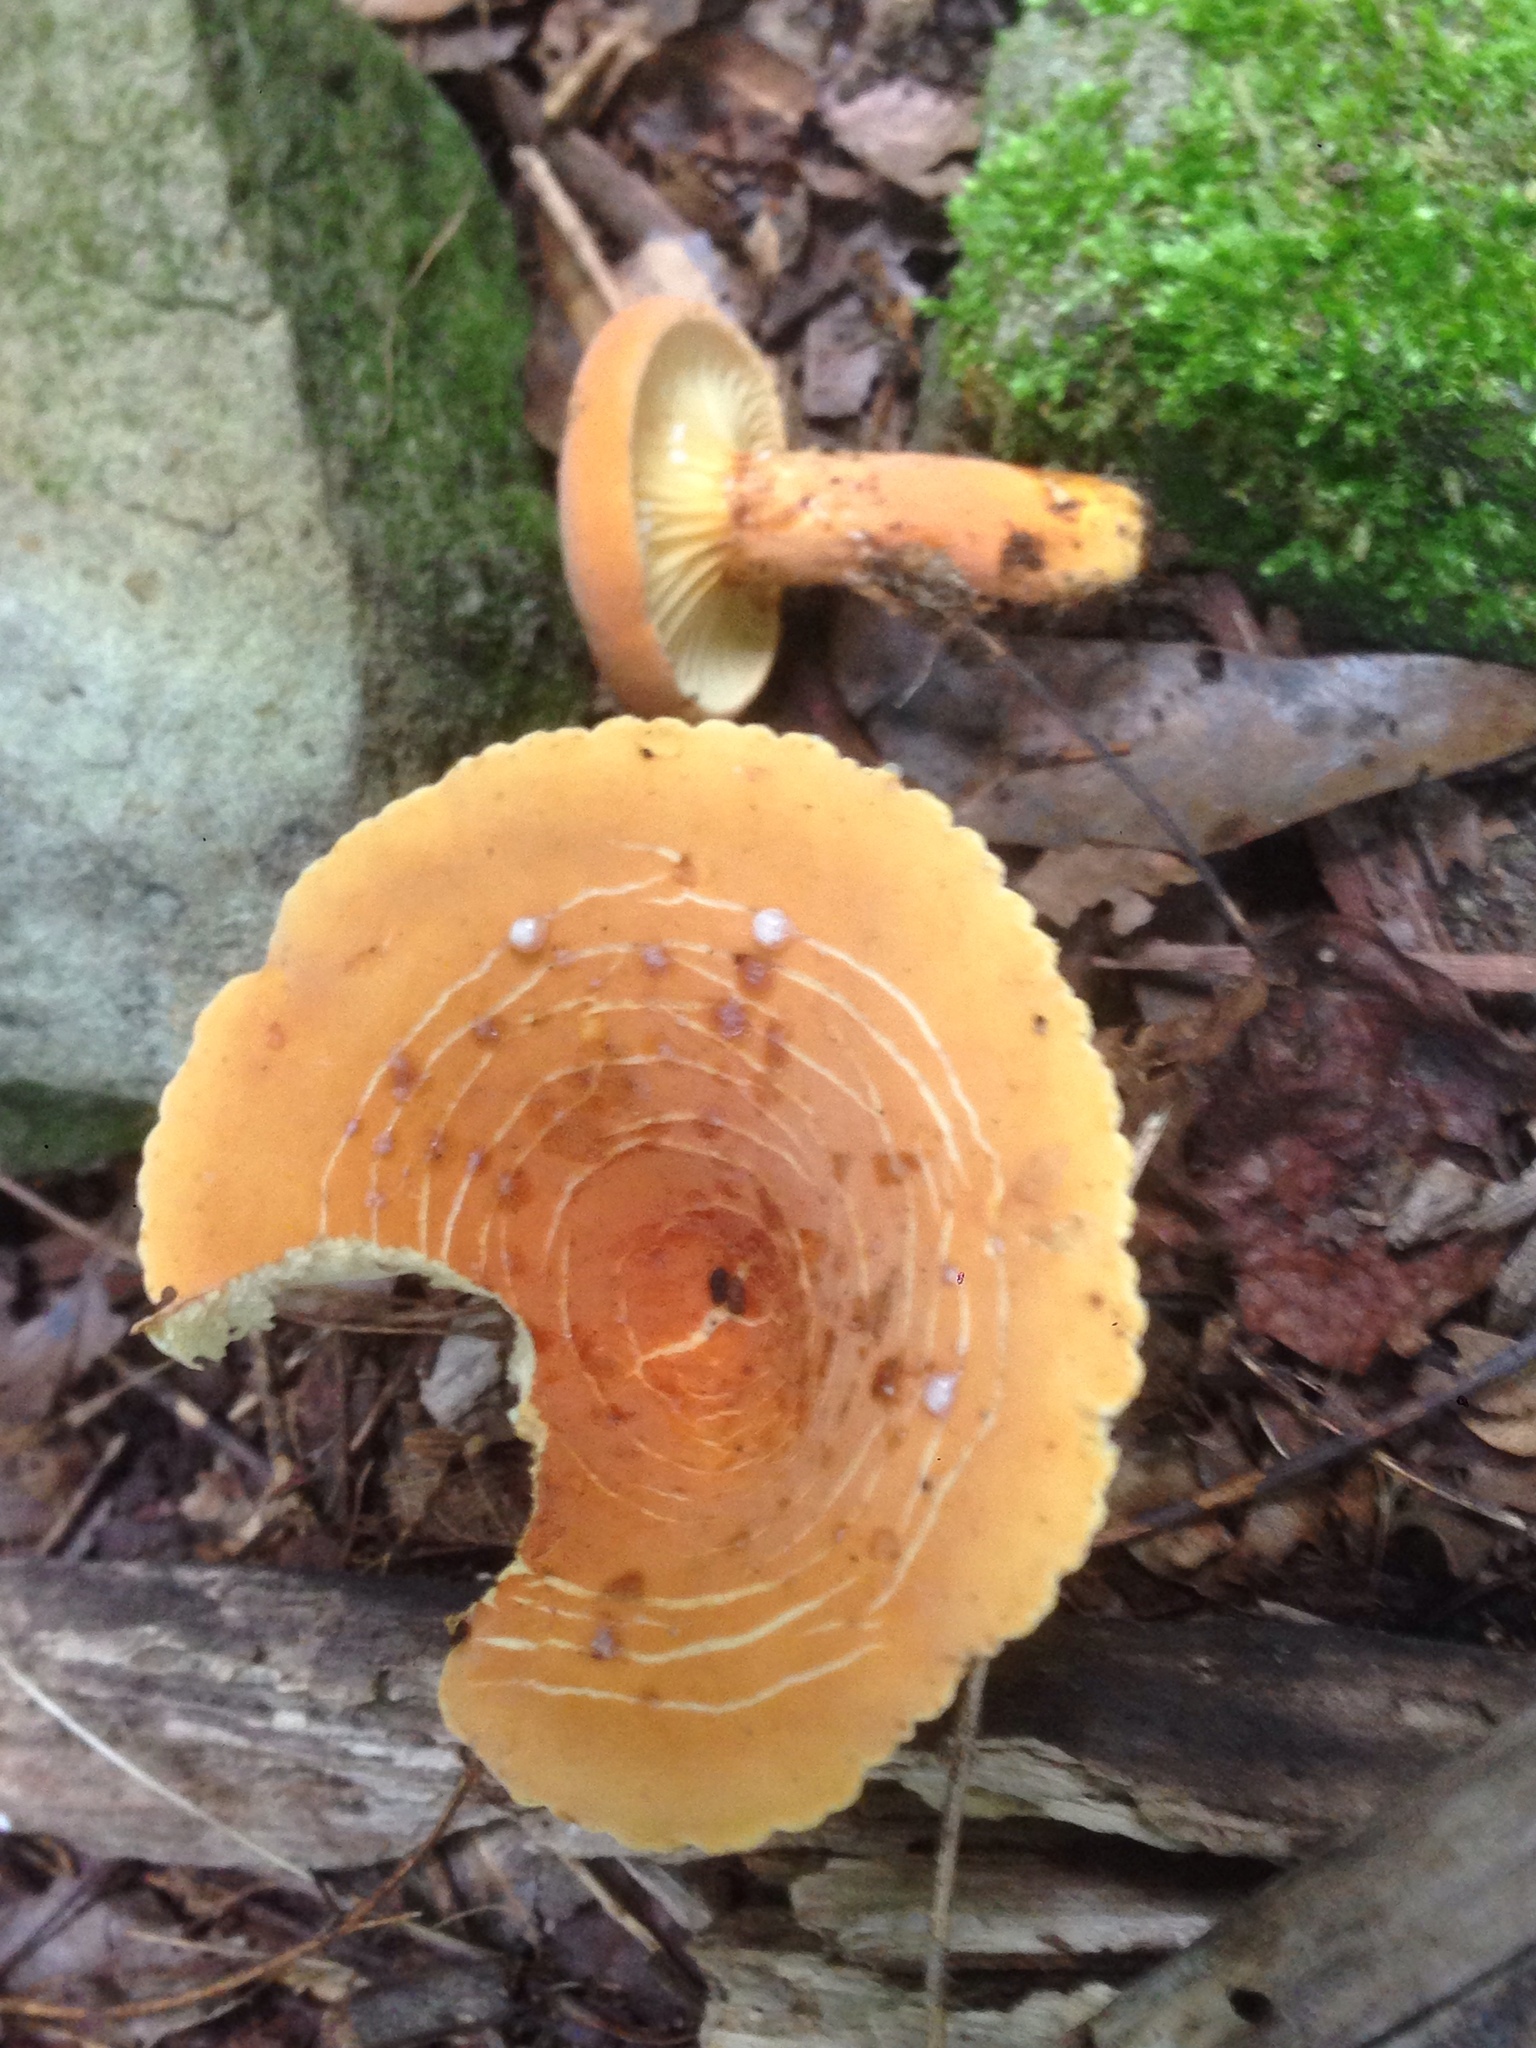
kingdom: Fungi
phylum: Basidiomycota
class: Agaricomycetes
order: Russulales
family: Russulaceae
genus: Lactarius
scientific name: Lactarius hygrophoroides
